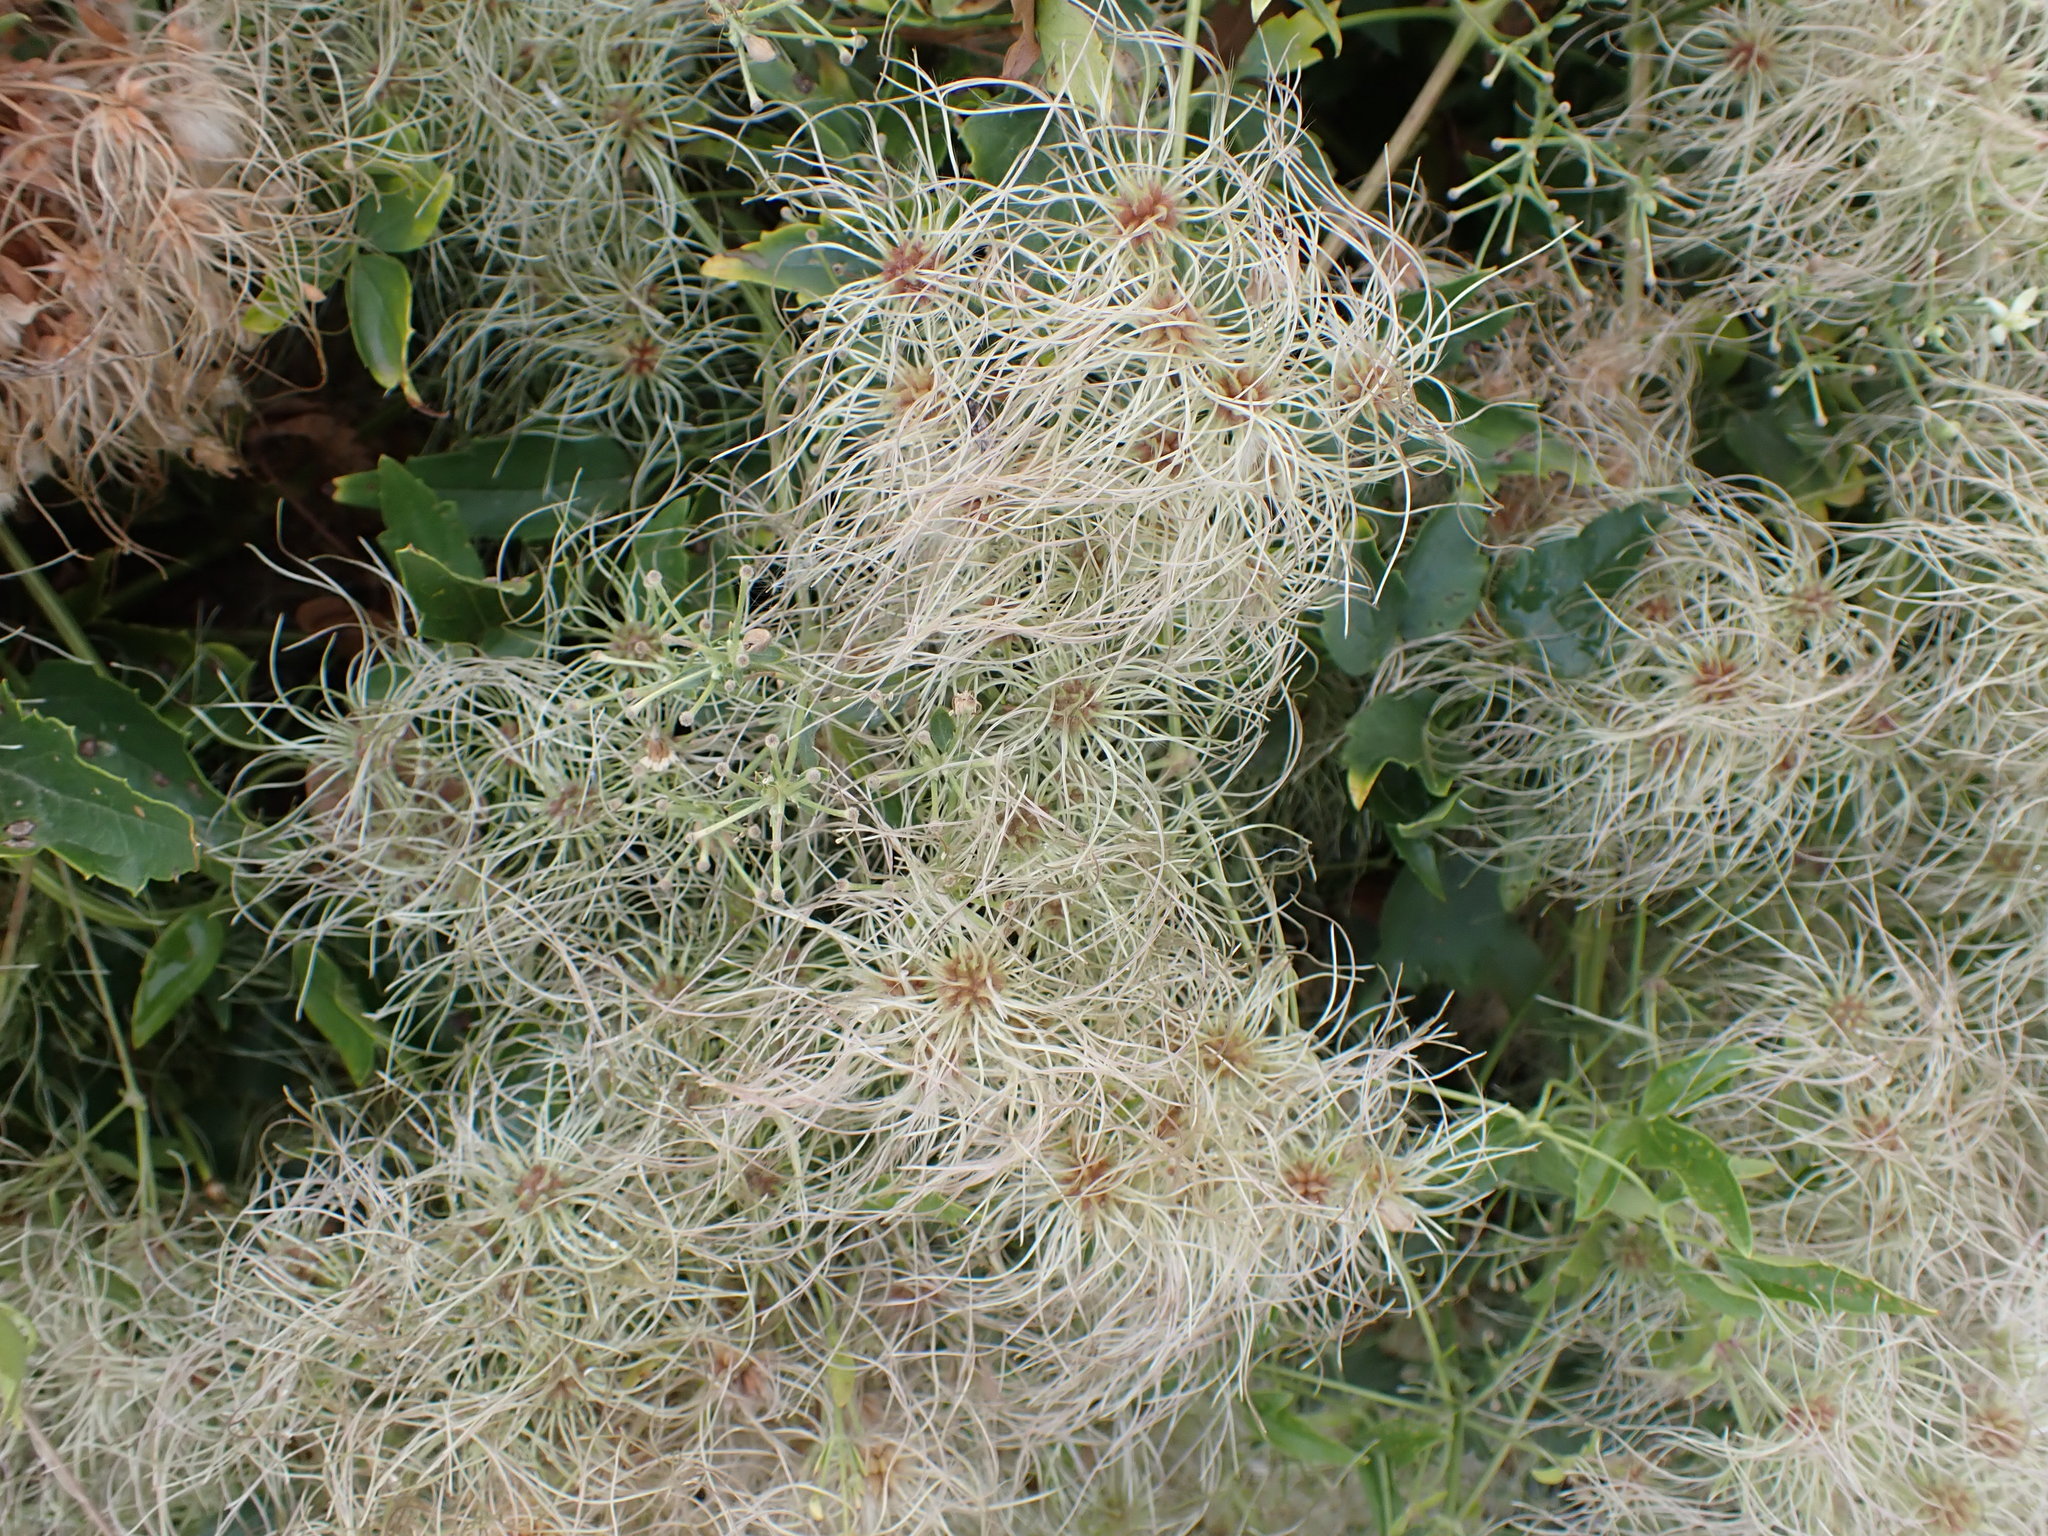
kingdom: Plantae
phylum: Tracheophyta
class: Magnoliopsida
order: Ranunculales
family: Ranunculaceae
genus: Clematis
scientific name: Clematis ligusticifolia
